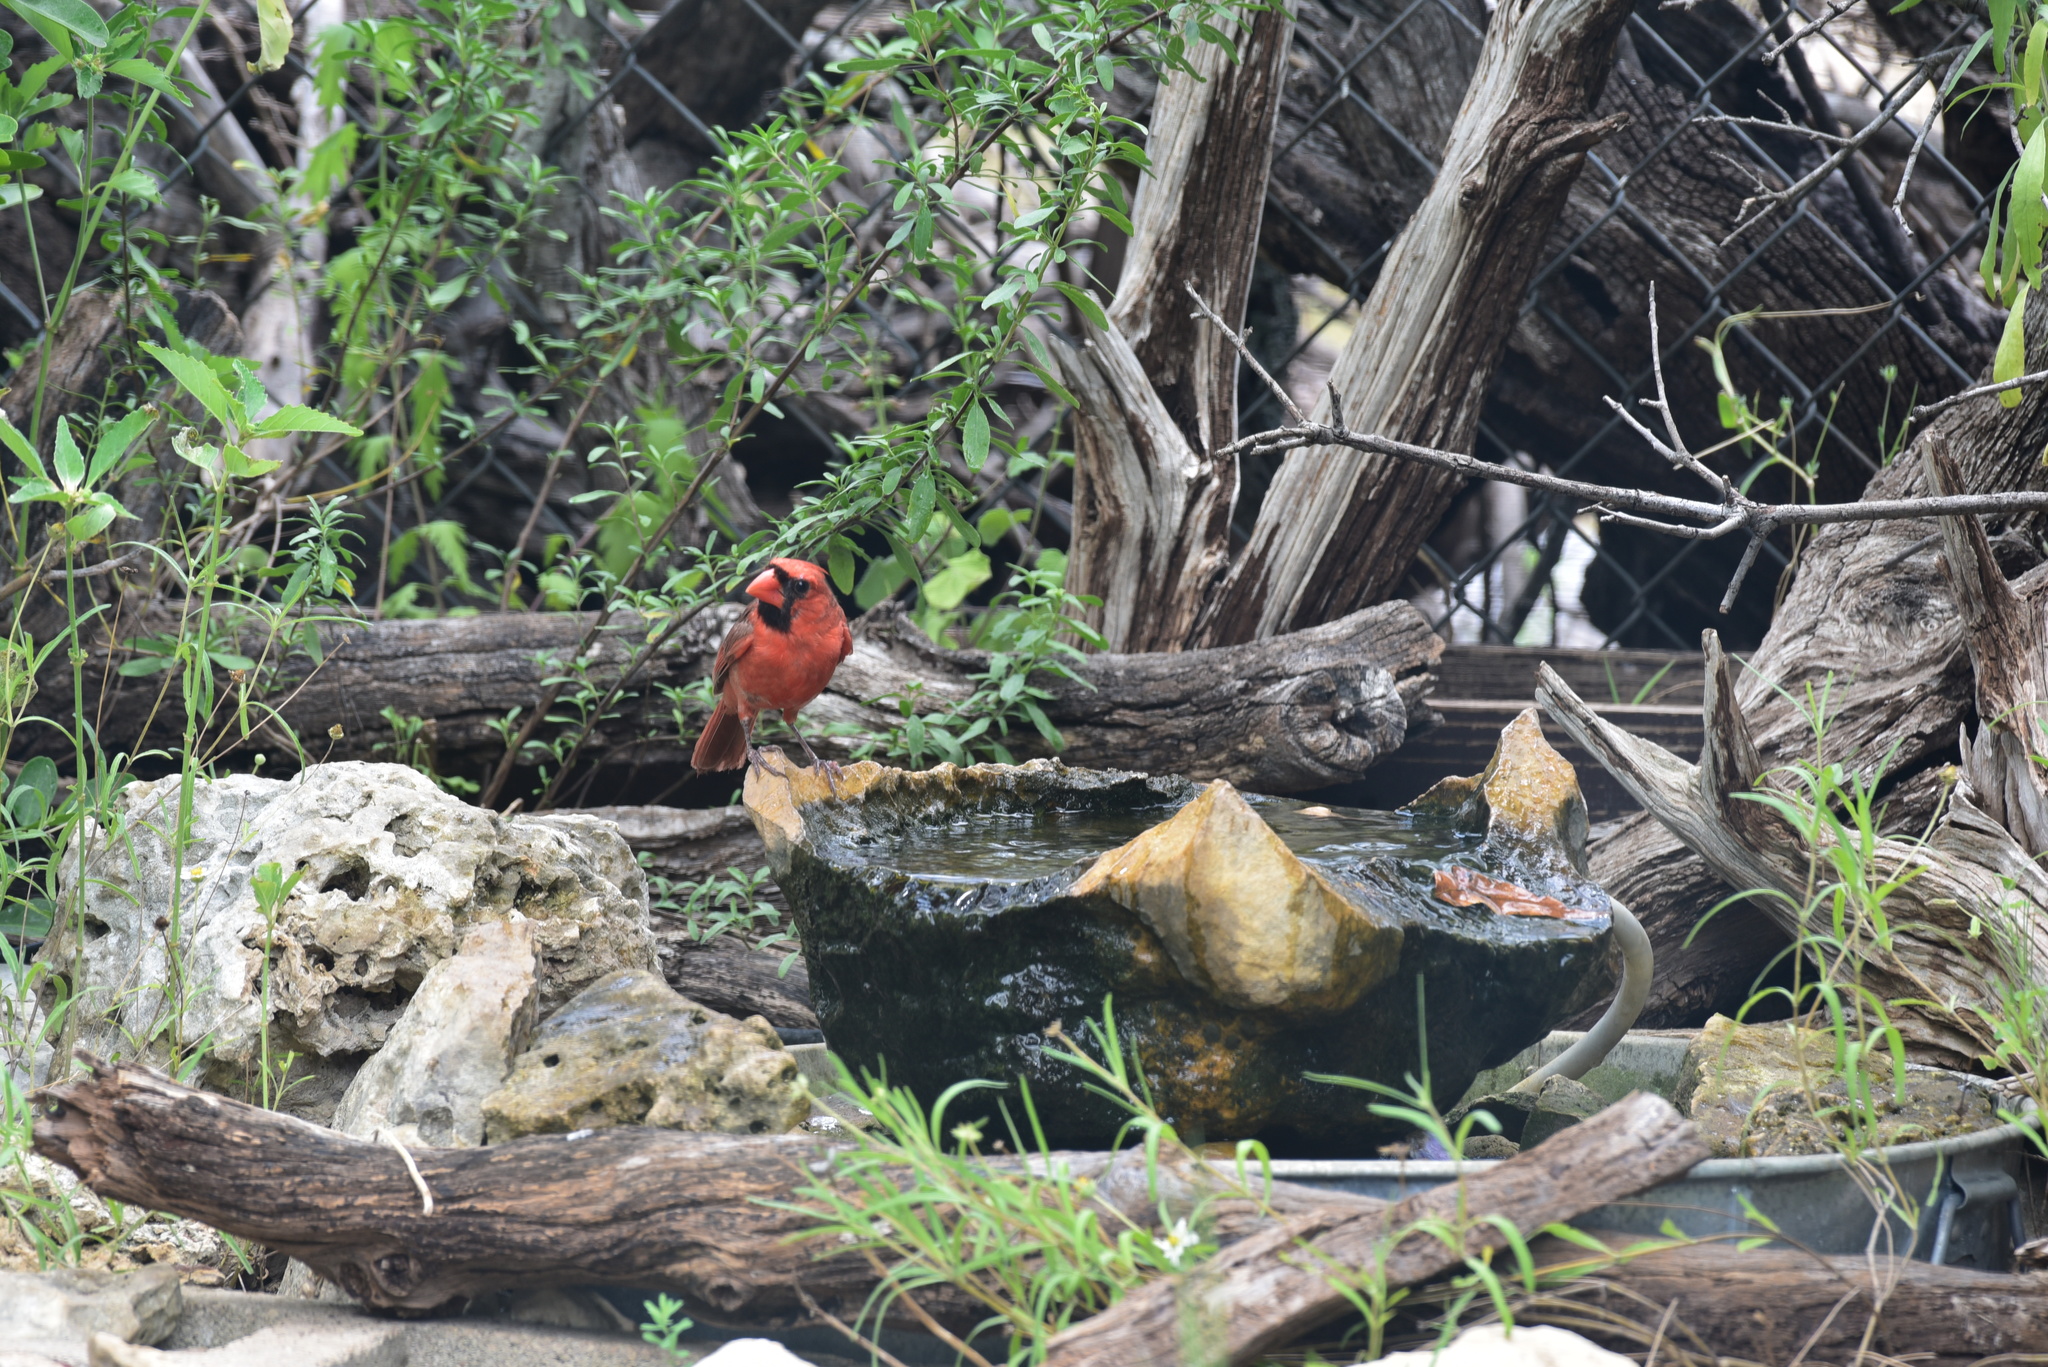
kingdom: Animalia
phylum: Chordata
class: Aves
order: Passeriformes
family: Cardinalidae
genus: Cardinalis
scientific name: Cardinalis cardinalis
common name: Northern cardinal
